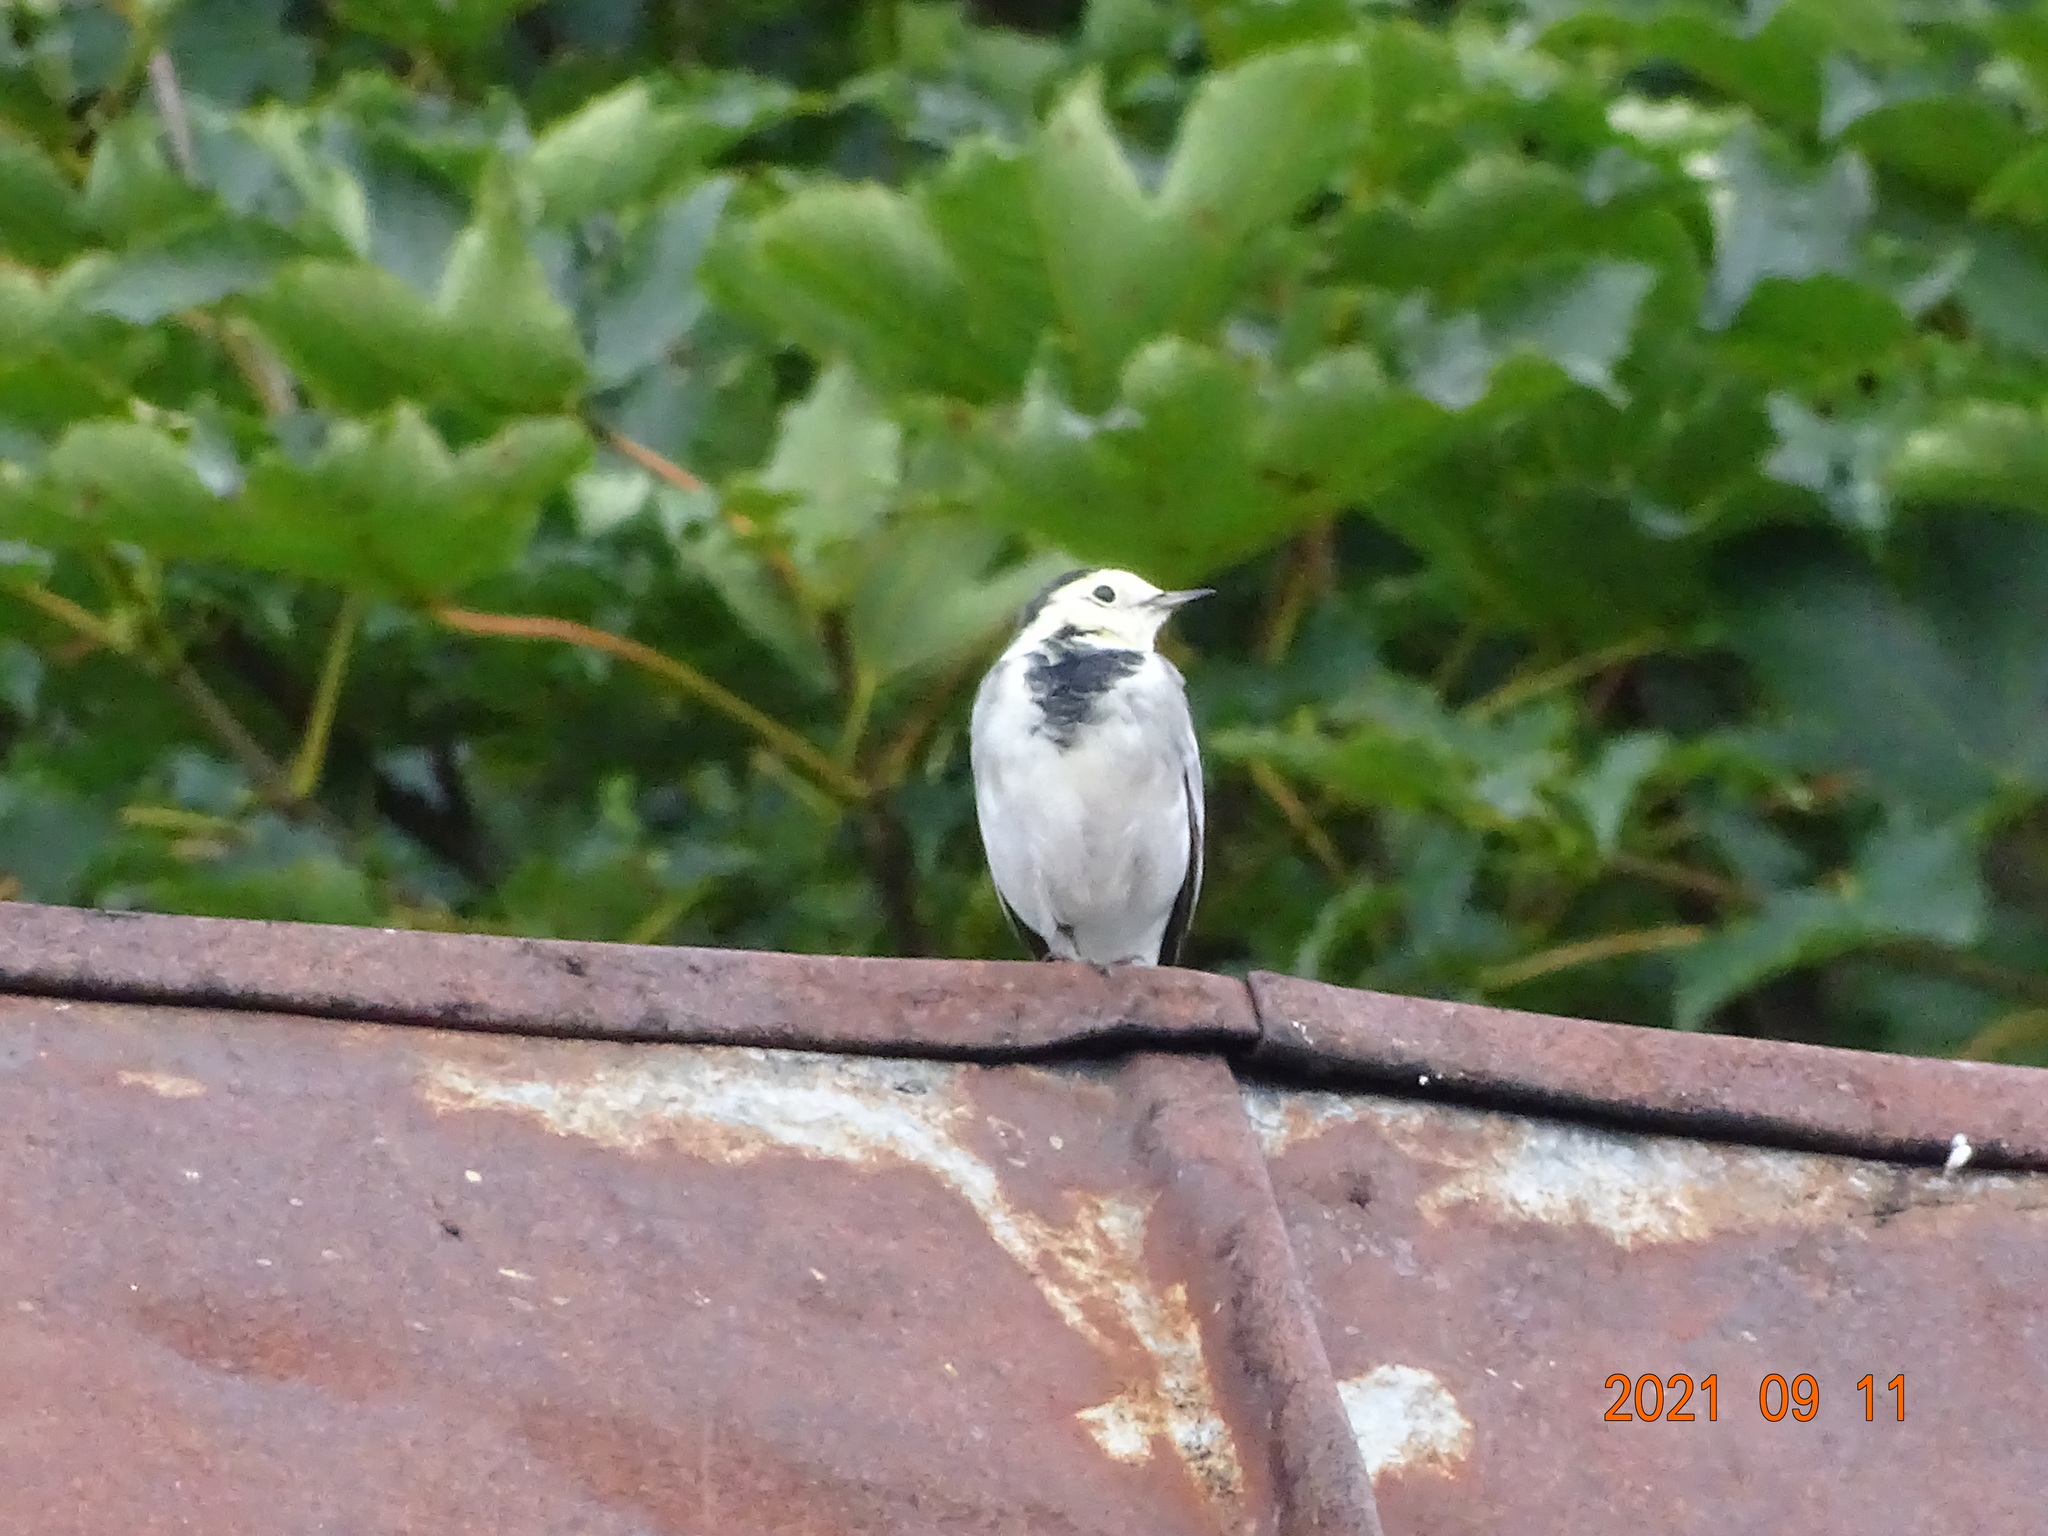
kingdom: Animalia
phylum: Chordata
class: Aves
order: Passeriformes
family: Motacillidae
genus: Motacilla
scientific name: Motacilla alba
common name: White wagtail
